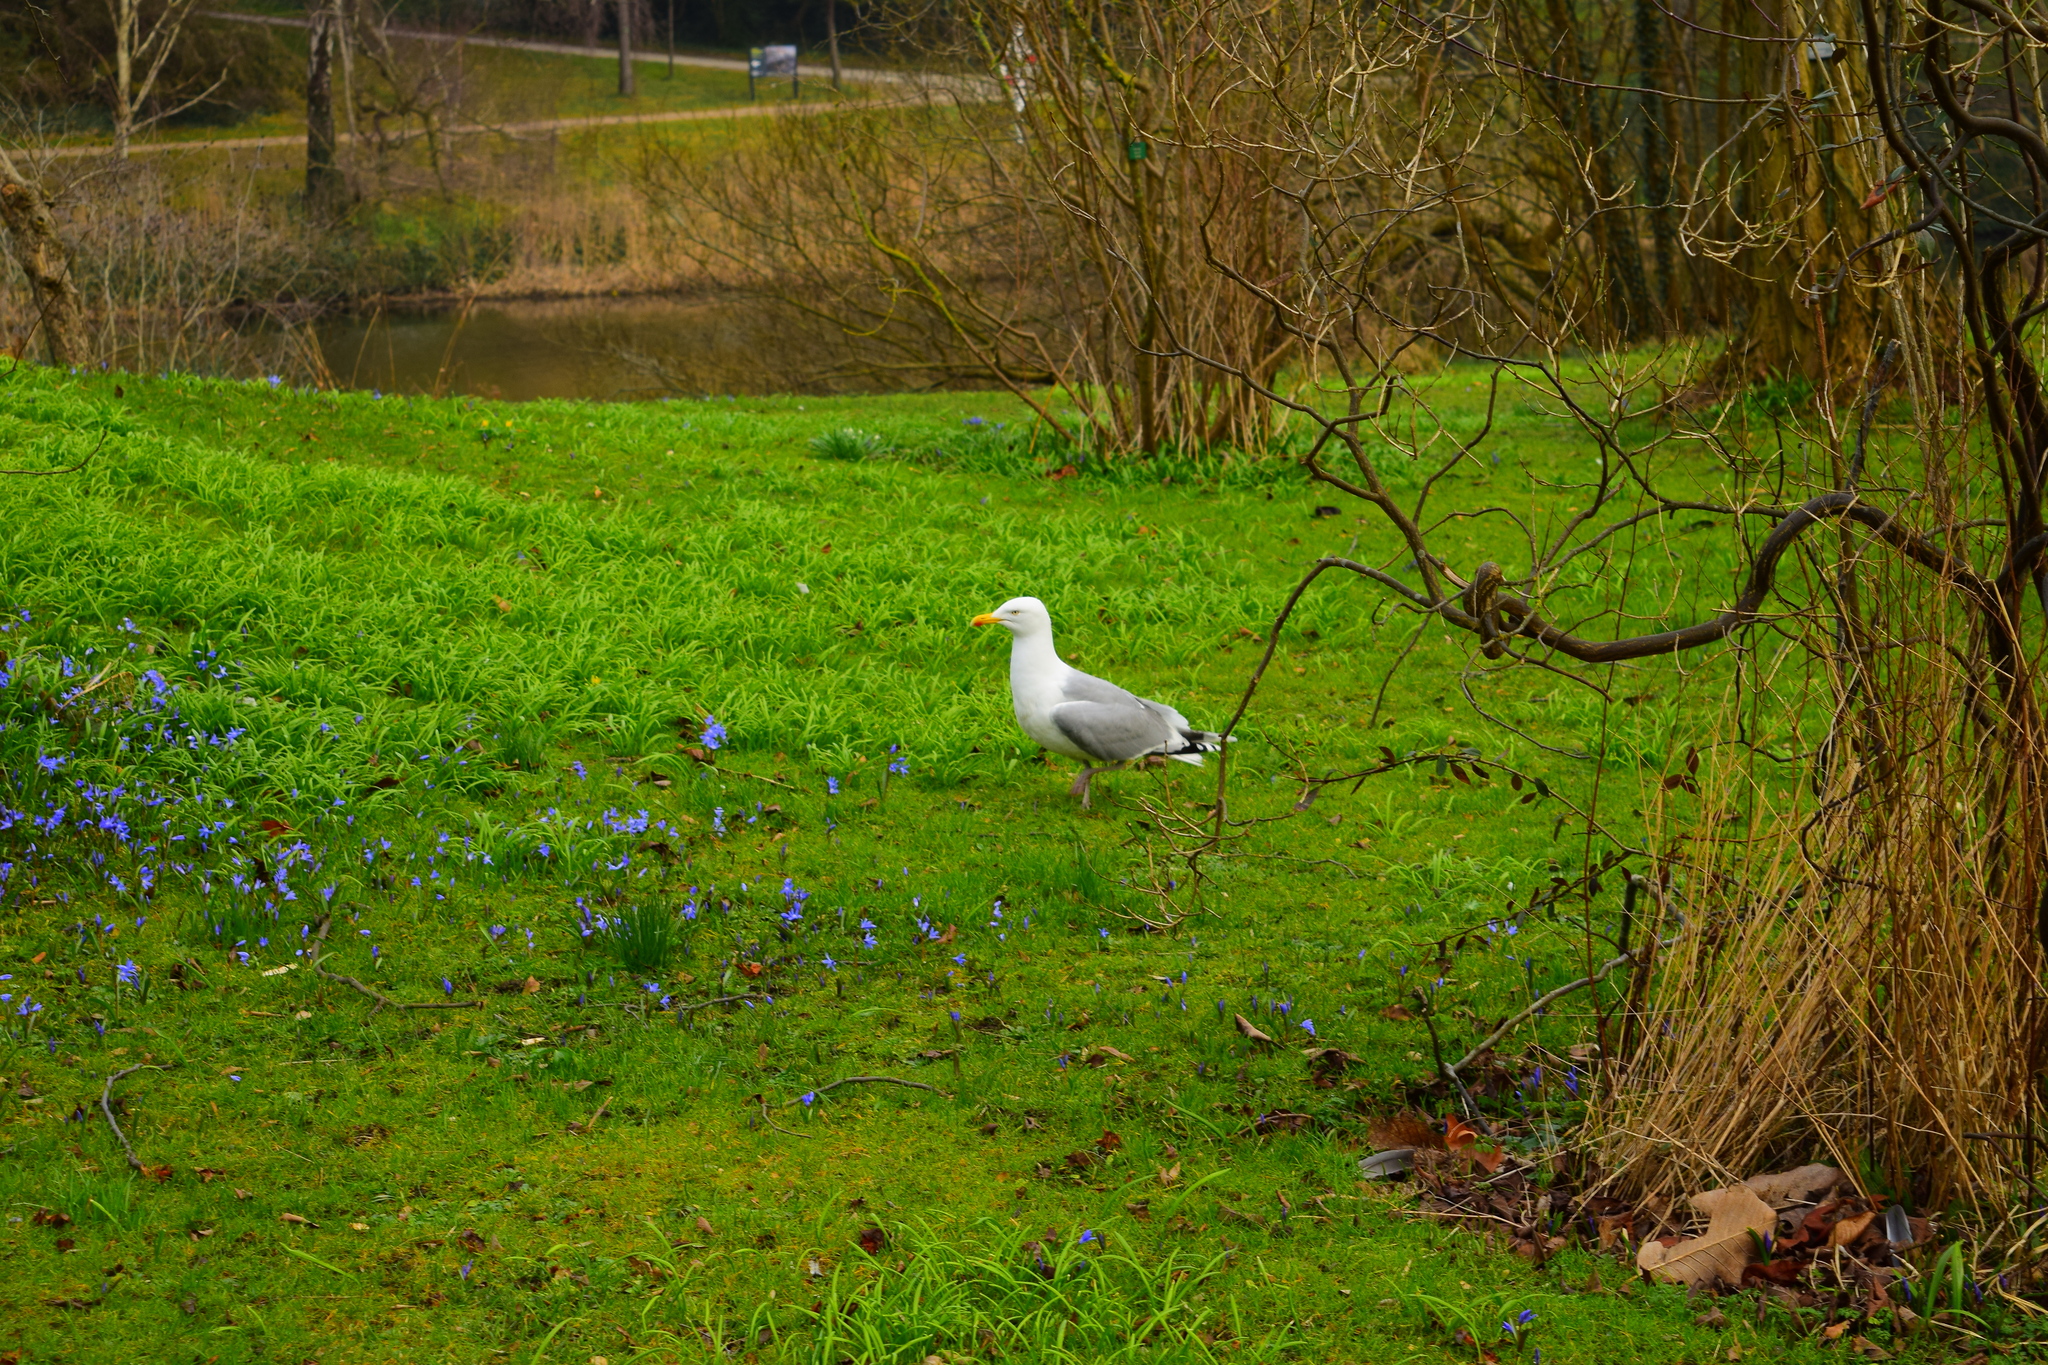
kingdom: Animalia
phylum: Chordata
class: Aves
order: Charadriiformes
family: Laridae
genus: Larus
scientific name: Larus argentatus
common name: Herring gull
